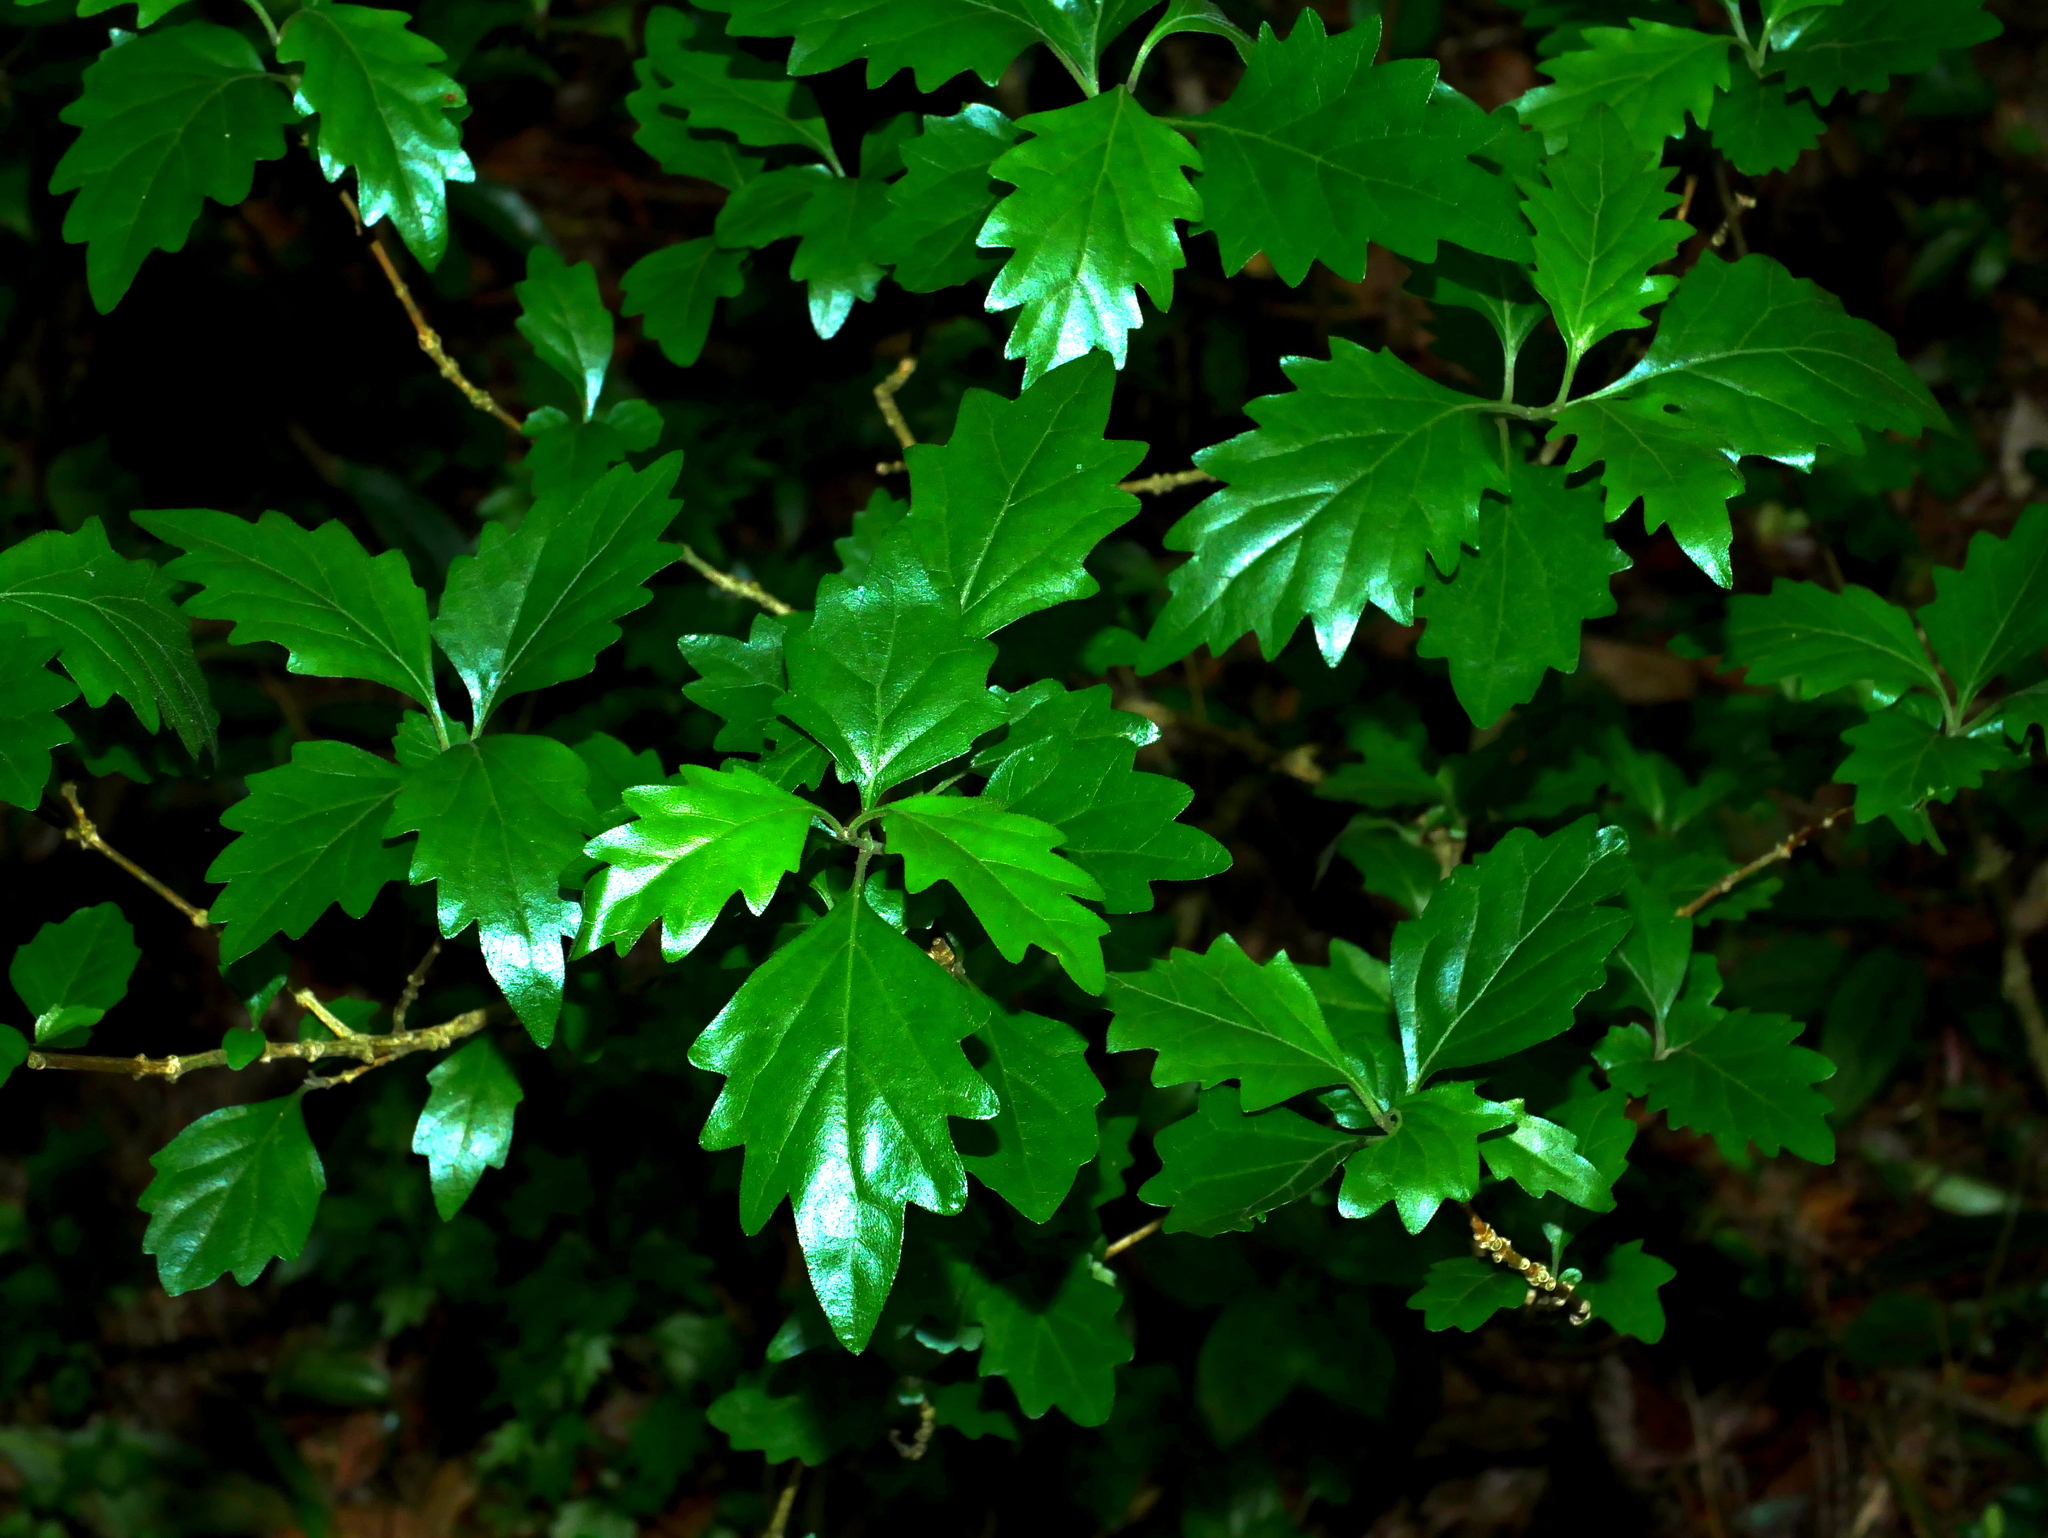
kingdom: Plantae
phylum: Tracheophyta
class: Magnoliopsida
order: Lamiales
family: Lamiaceae
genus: Premna
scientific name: Premna microphylla
